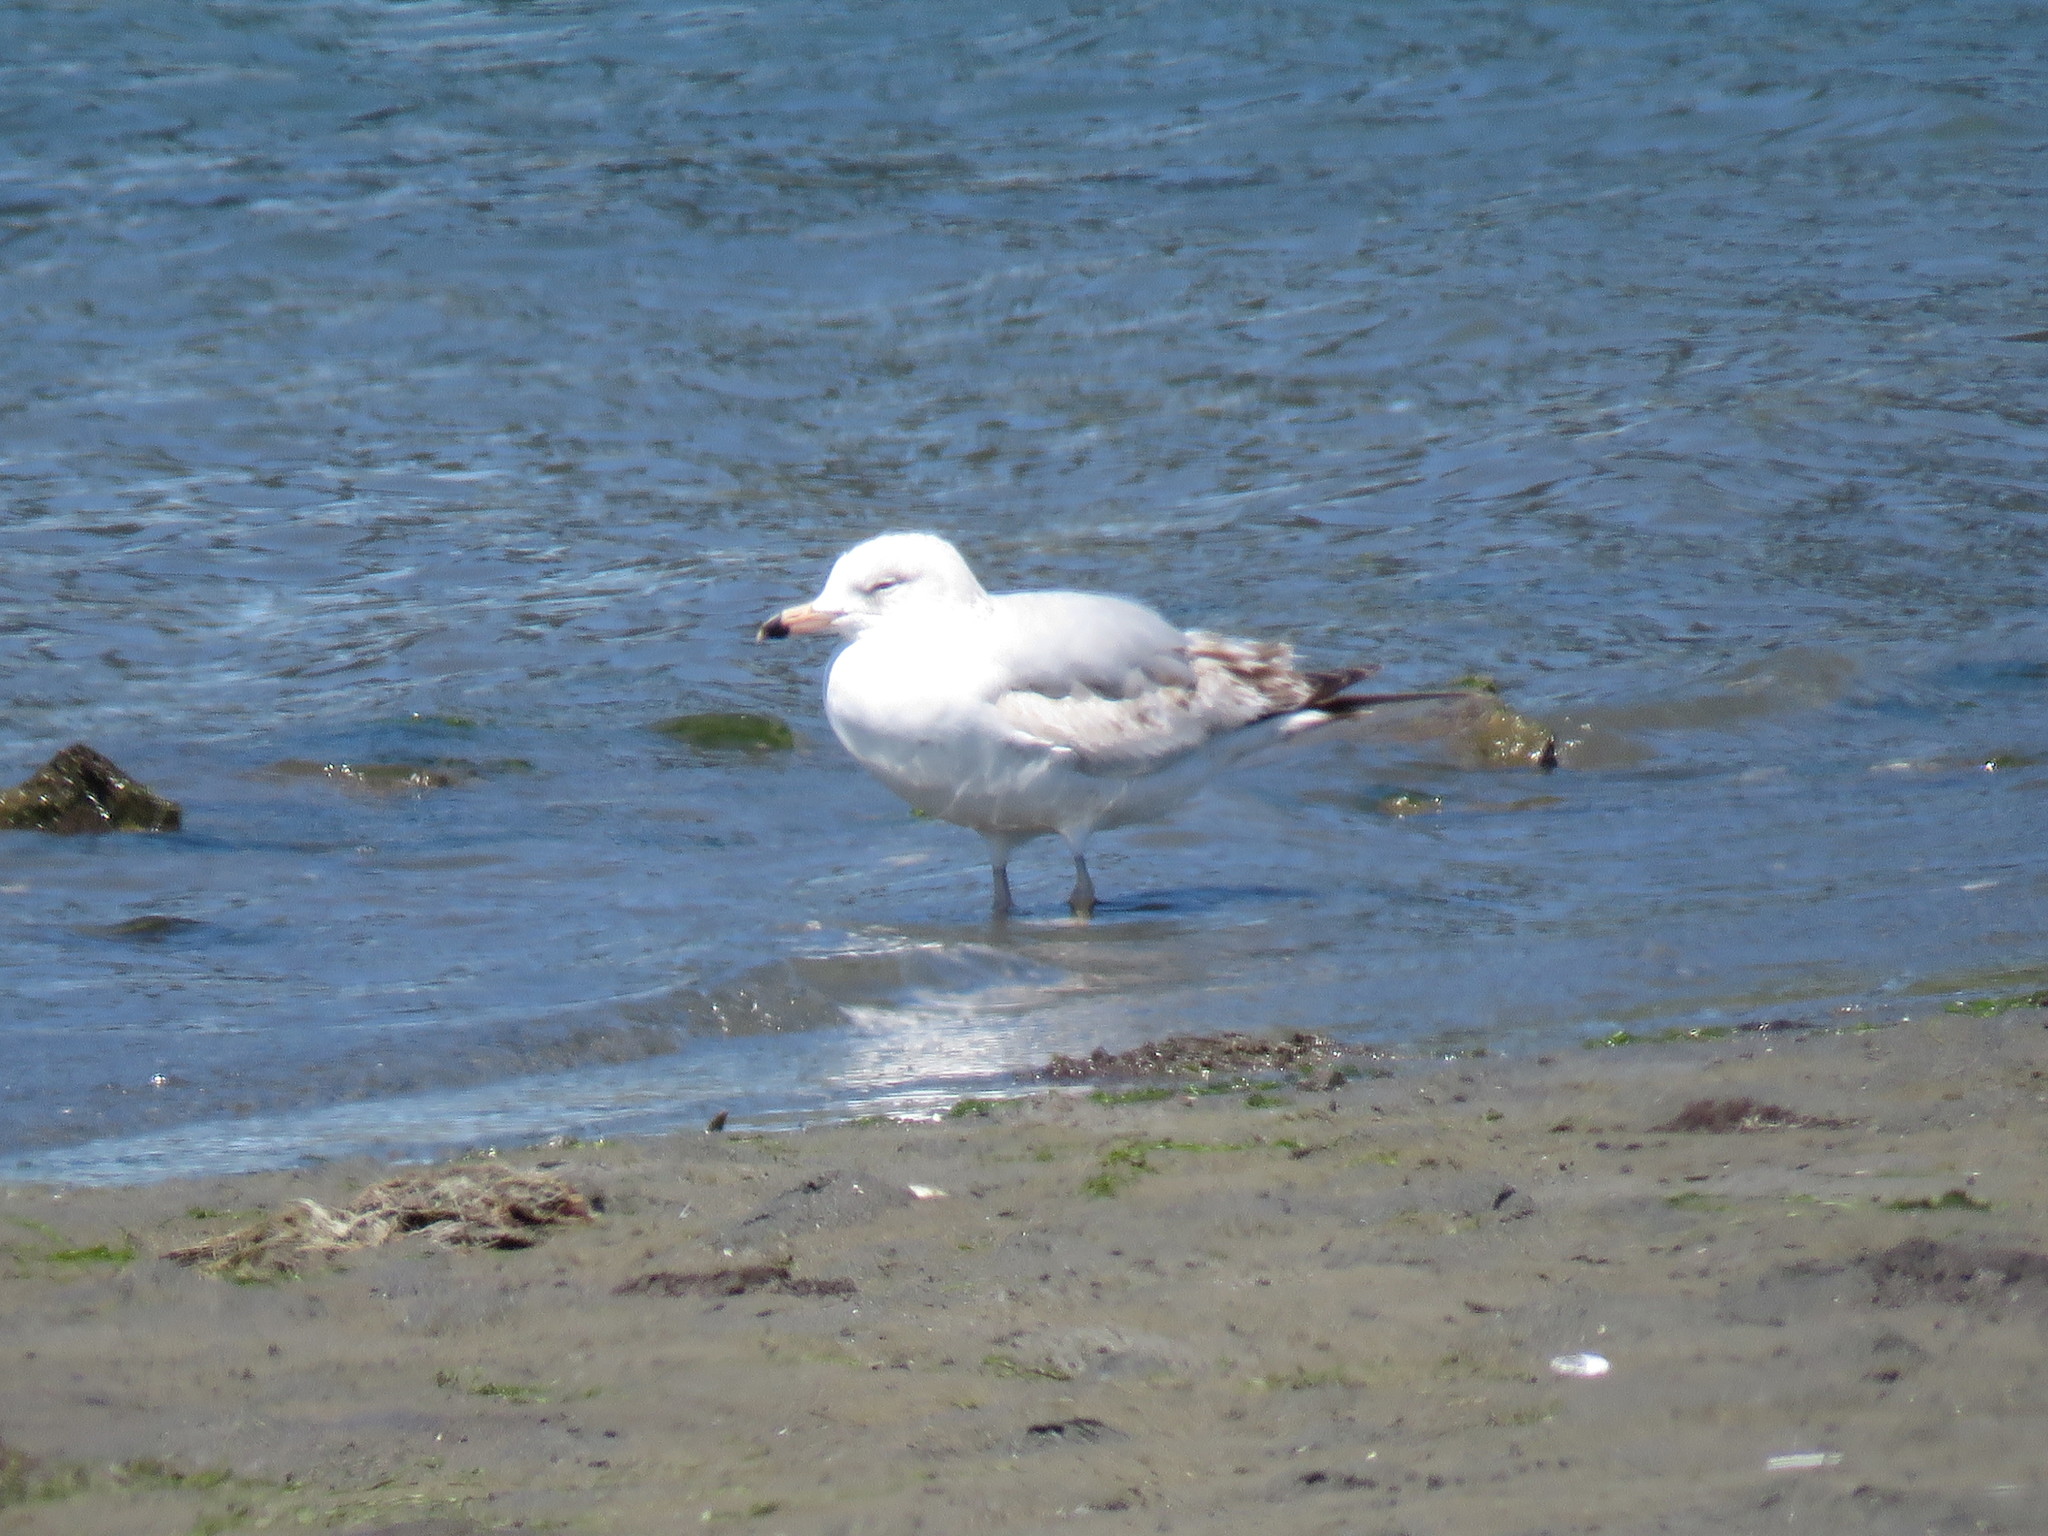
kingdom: Animalia
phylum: Chordata
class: Aves
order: Charadriiformes
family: Laridae
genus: Larus
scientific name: Larus delawarensis
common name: Ring-billed gull
